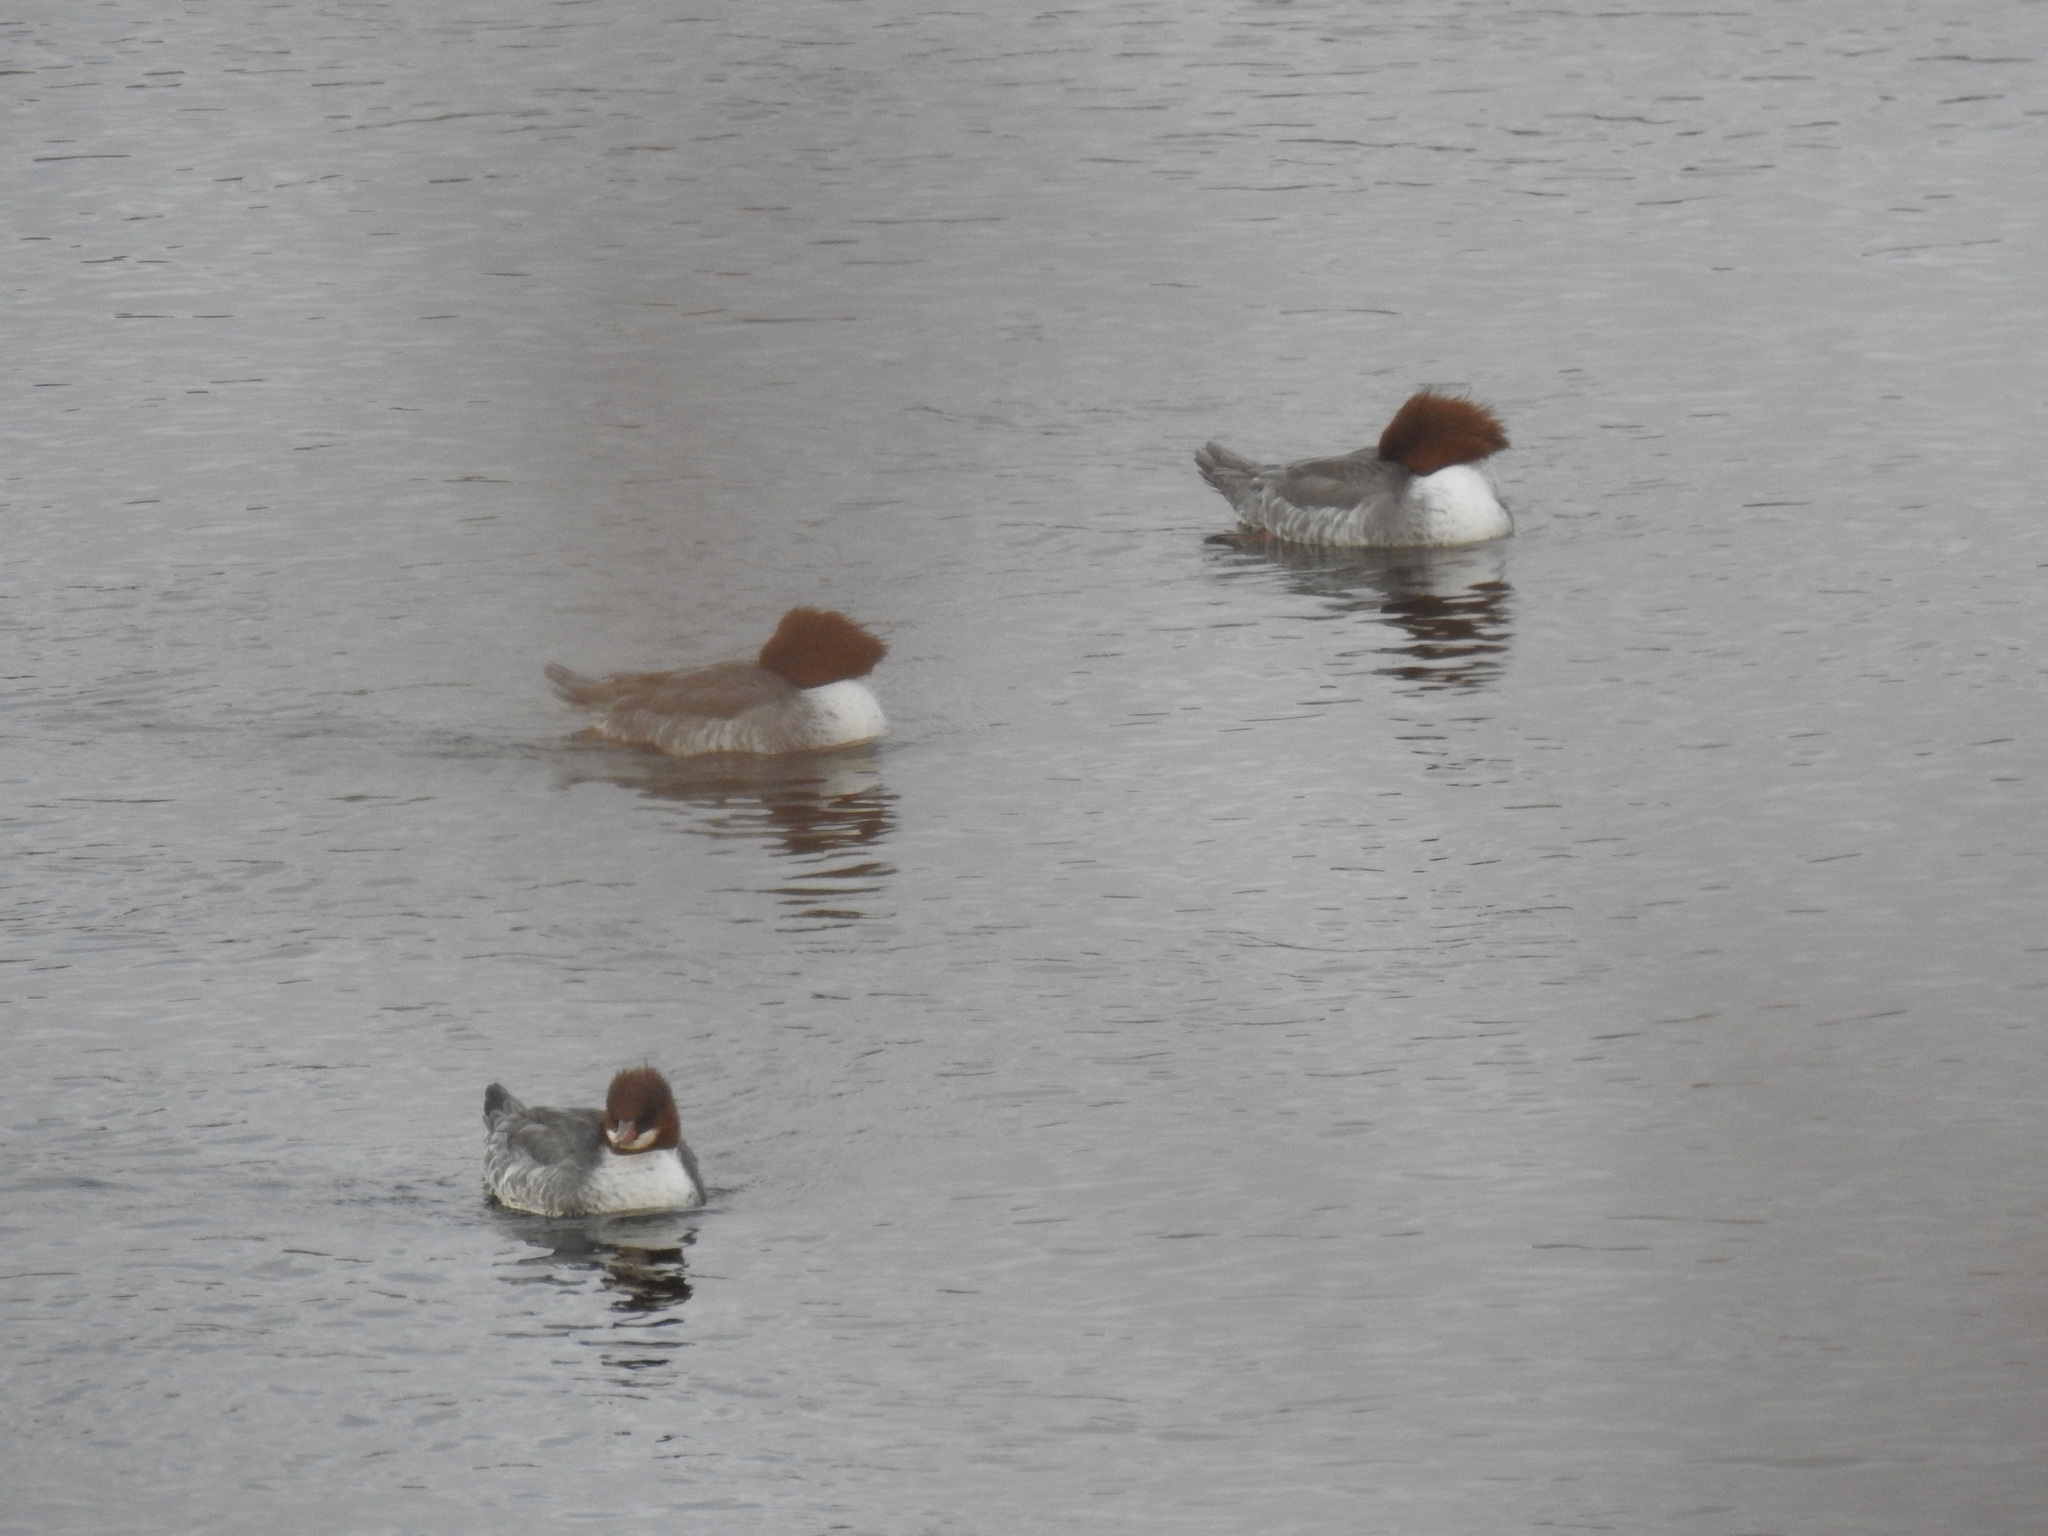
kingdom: Animalia
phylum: Chordata
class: Aves
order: Anseriformes
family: Anatidae
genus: Mergus
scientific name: Mergus merganser
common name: Common merganser
